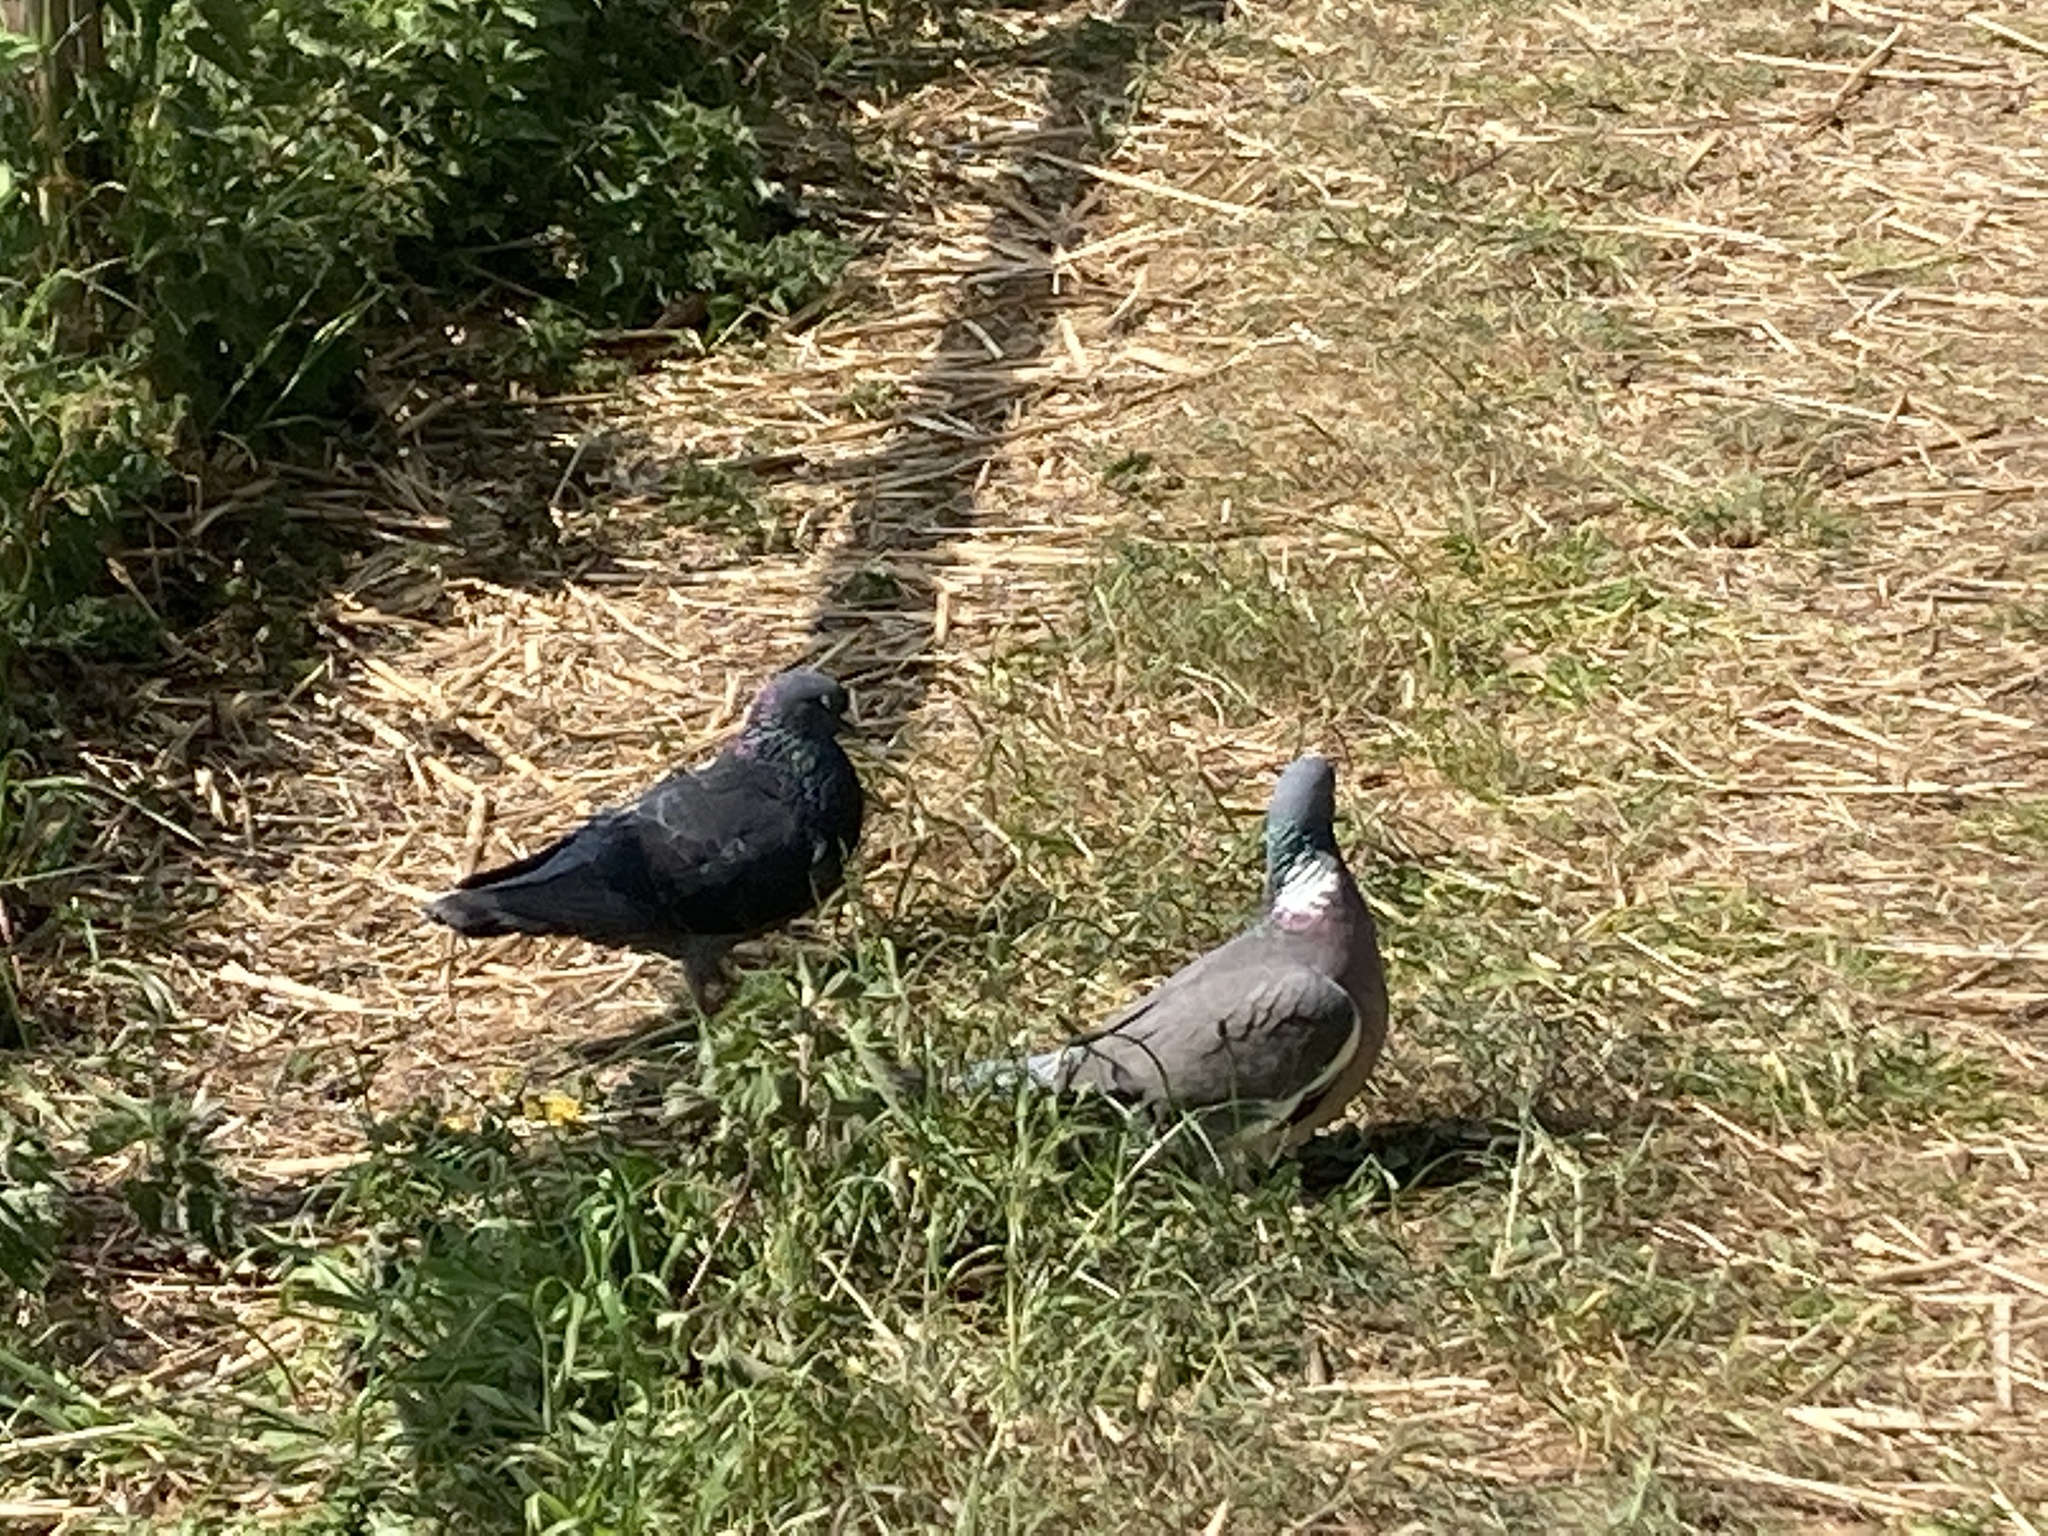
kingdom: Animalia
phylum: Chordata
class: Aves
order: Columbiformes
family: Columbidae
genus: Columba
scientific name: Columba palumbus
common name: Common wood pigeon
